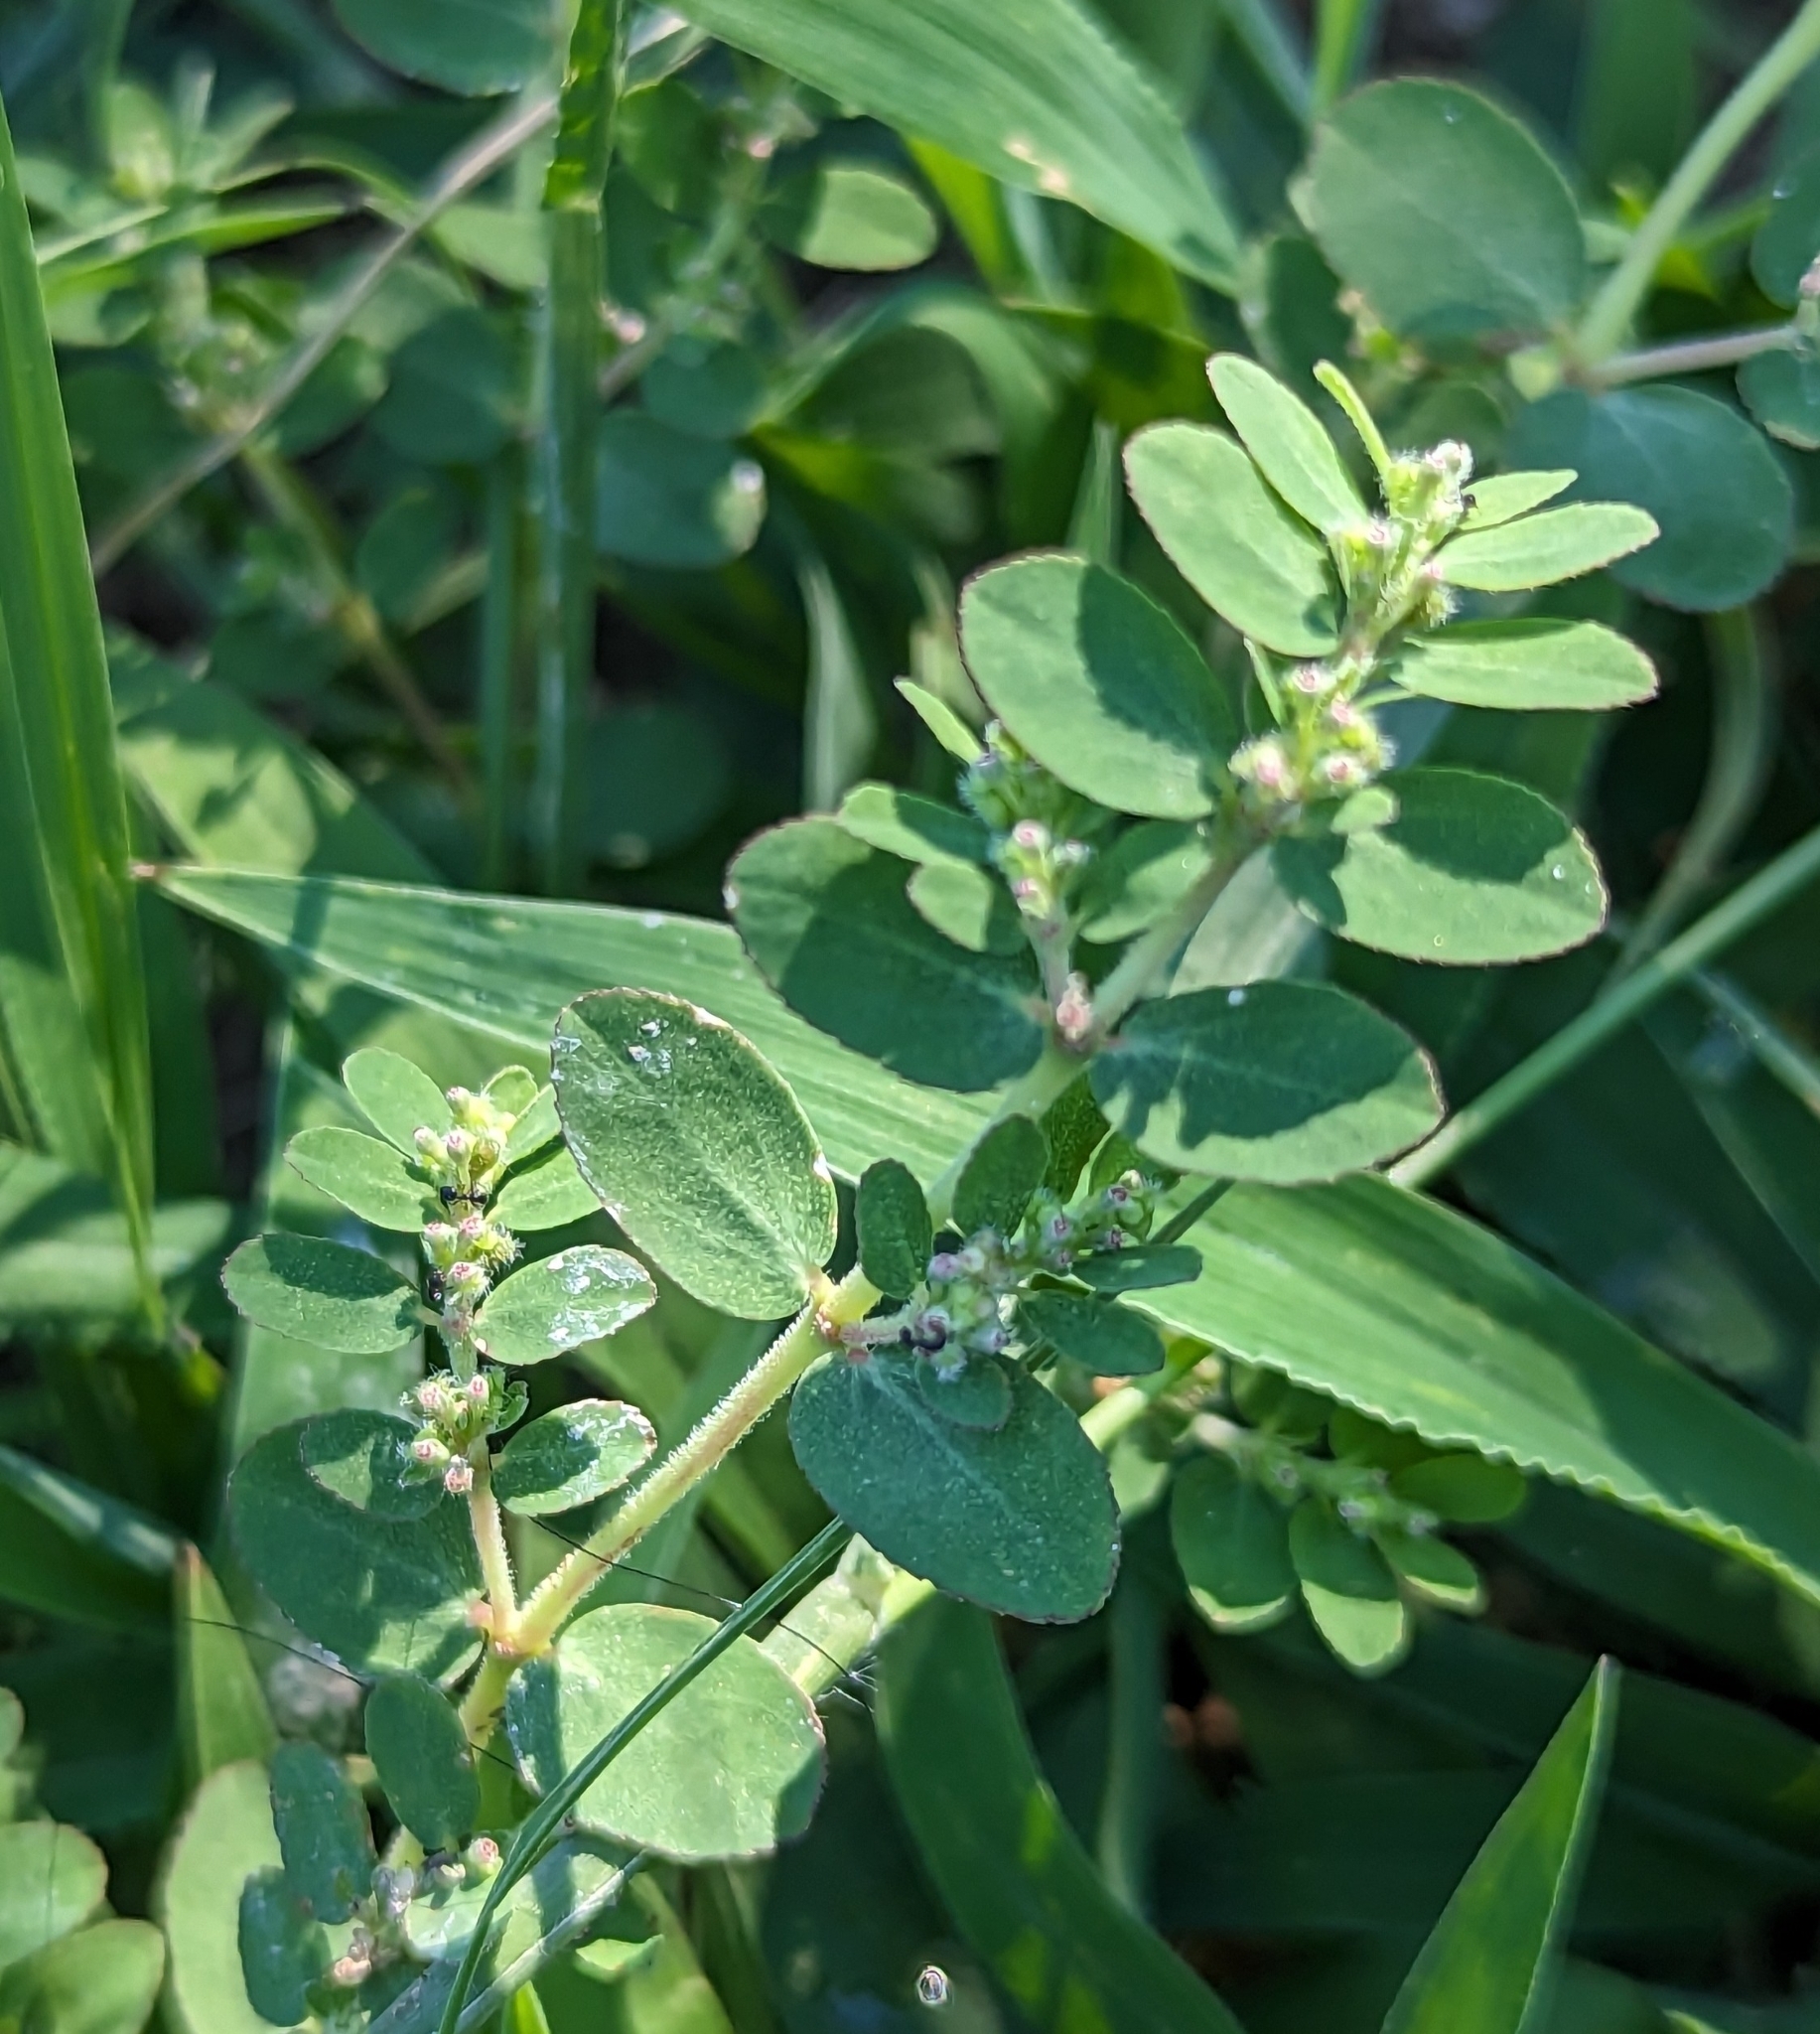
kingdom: Plantae
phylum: Tracheophyta
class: Magnoliopsida
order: Malpighiales
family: Euphorbiaceae
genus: Euphorbia
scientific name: Euphorbia prostrata
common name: Prostrate sandmat
